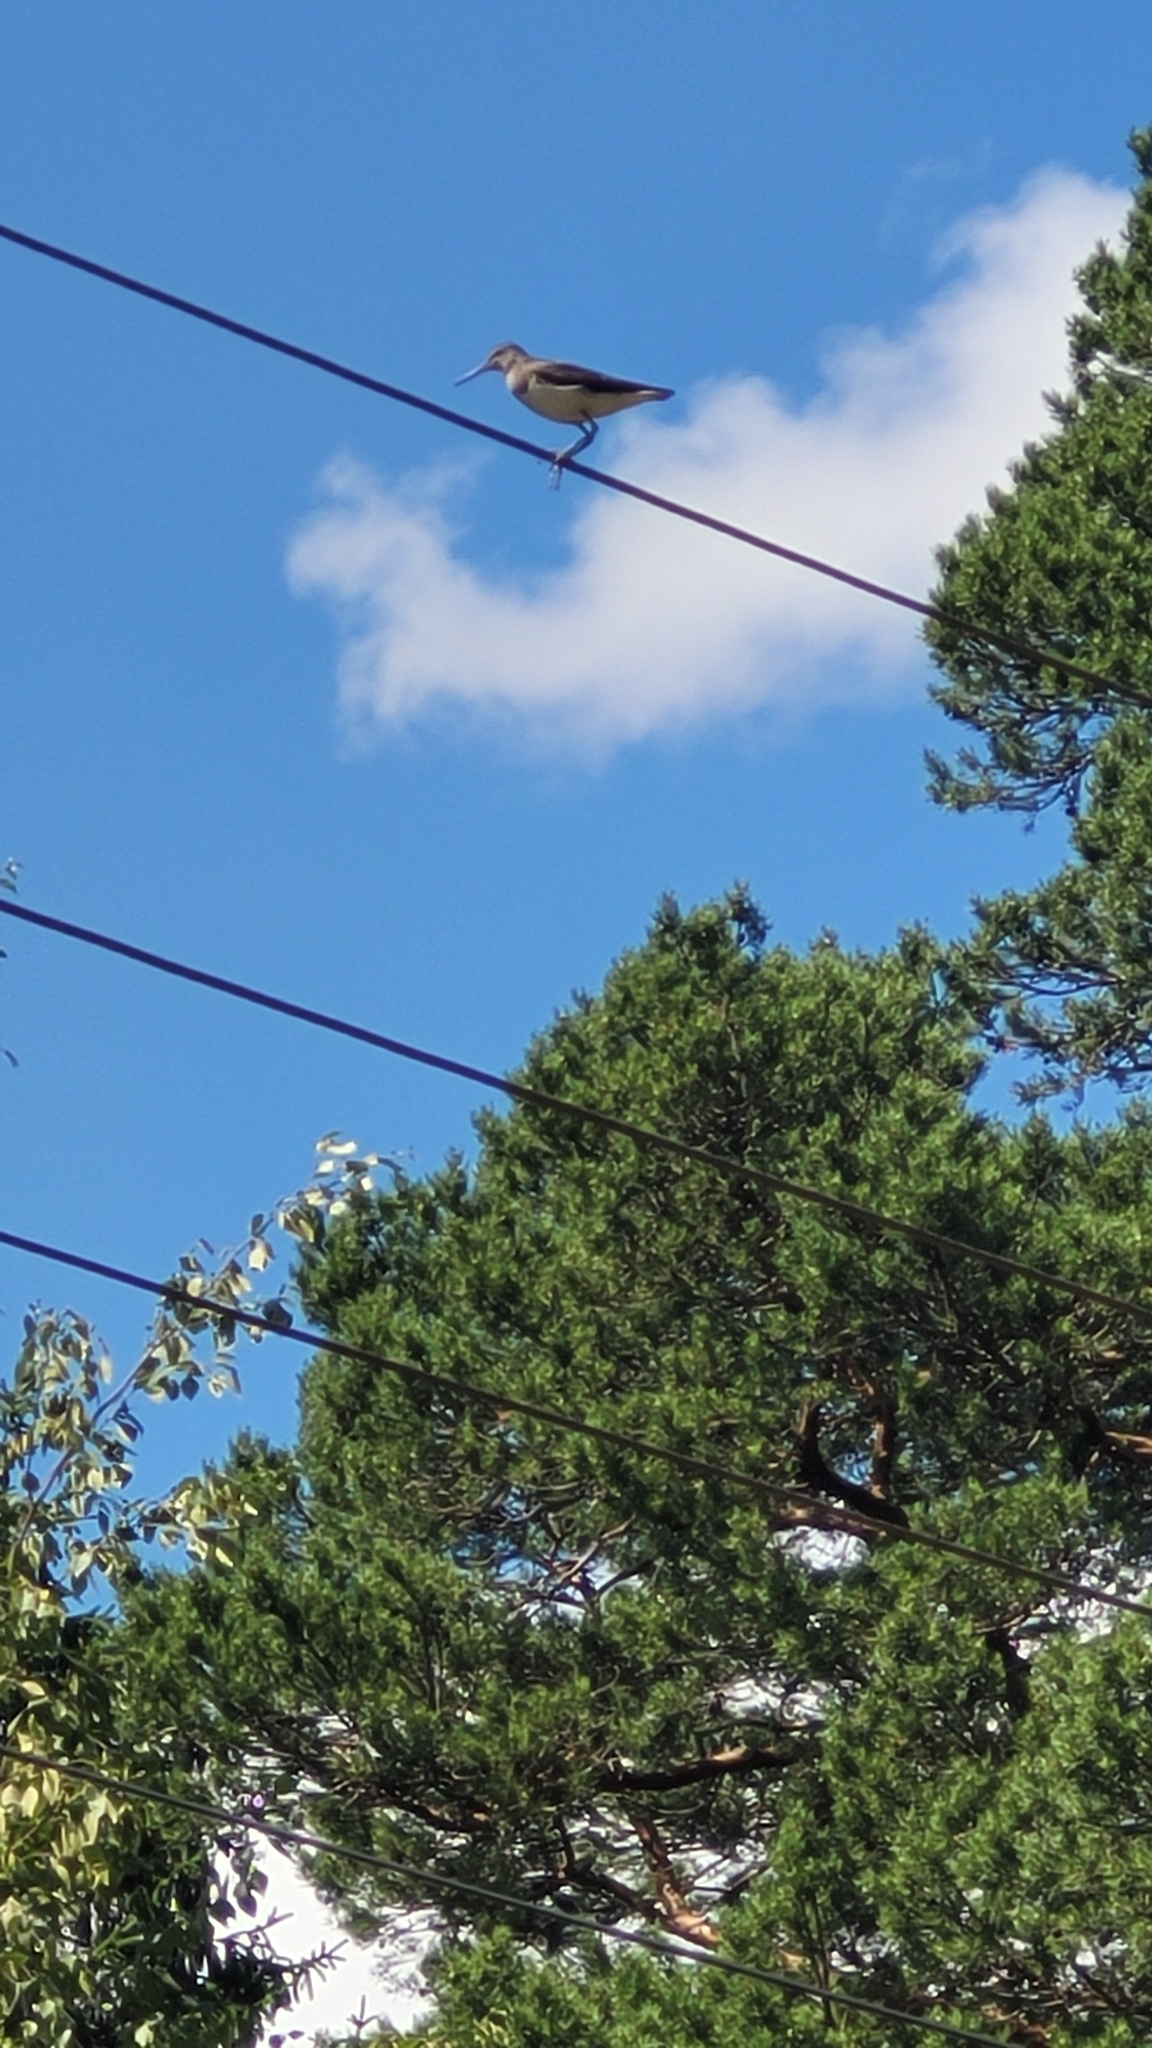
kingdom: Animalia
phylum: Chordata
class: Aves
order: Charadriiformes
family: Scolopacidae
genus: Tringa
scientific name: Tringa ochropus
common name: Green sandpiper
